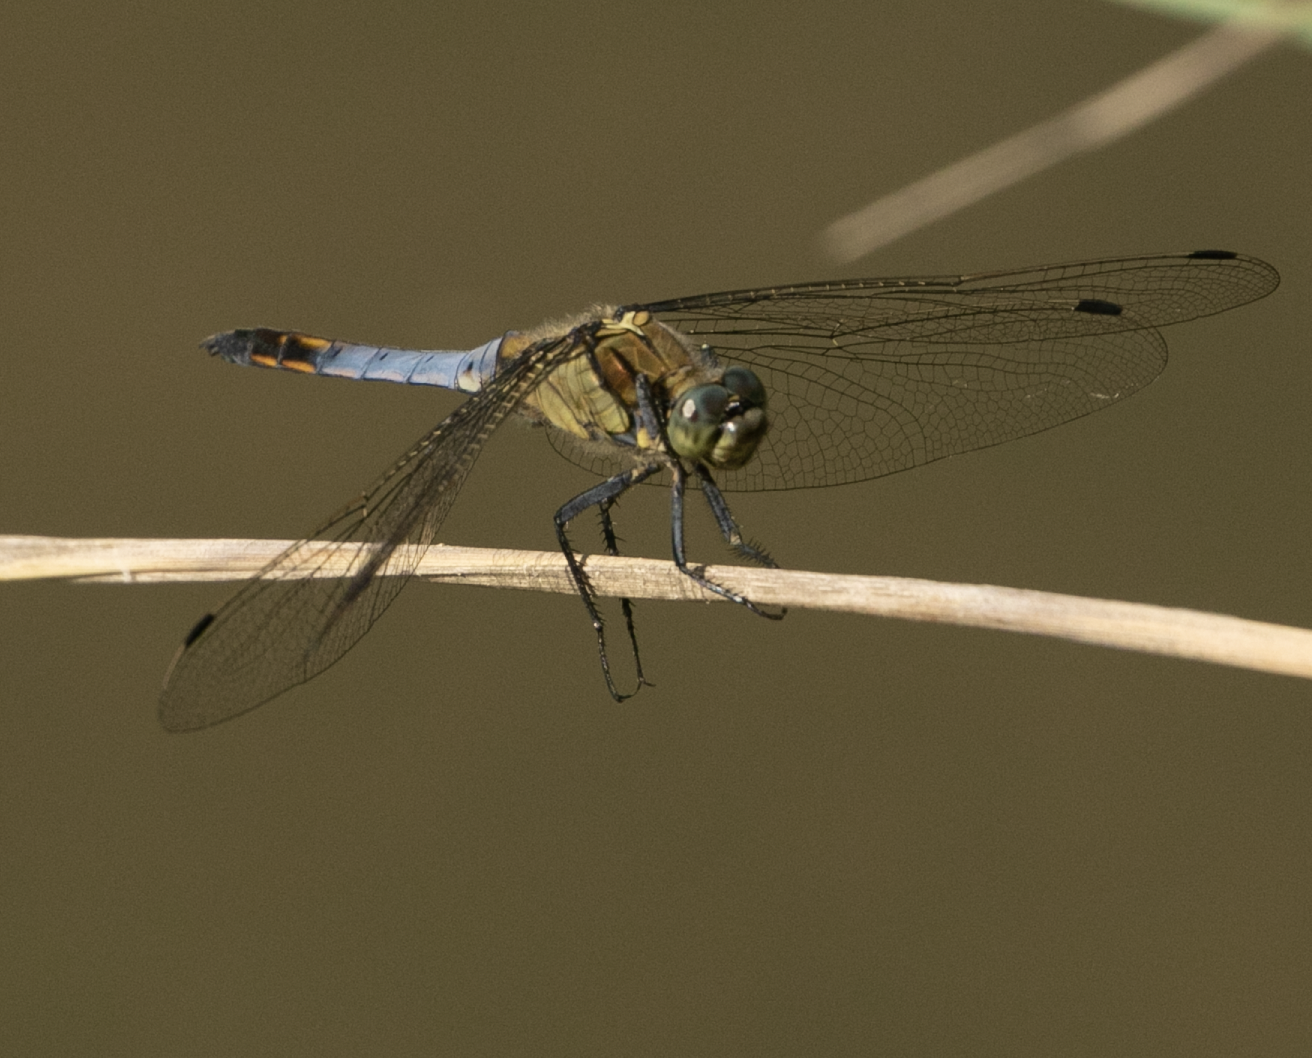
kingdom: Animalia
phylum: Arthropoda
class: Insecta
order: Odonata
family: Libellulidae
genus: Orthetrum
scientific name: Orthetrum cancellatum
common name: Black-tailed skimmer
